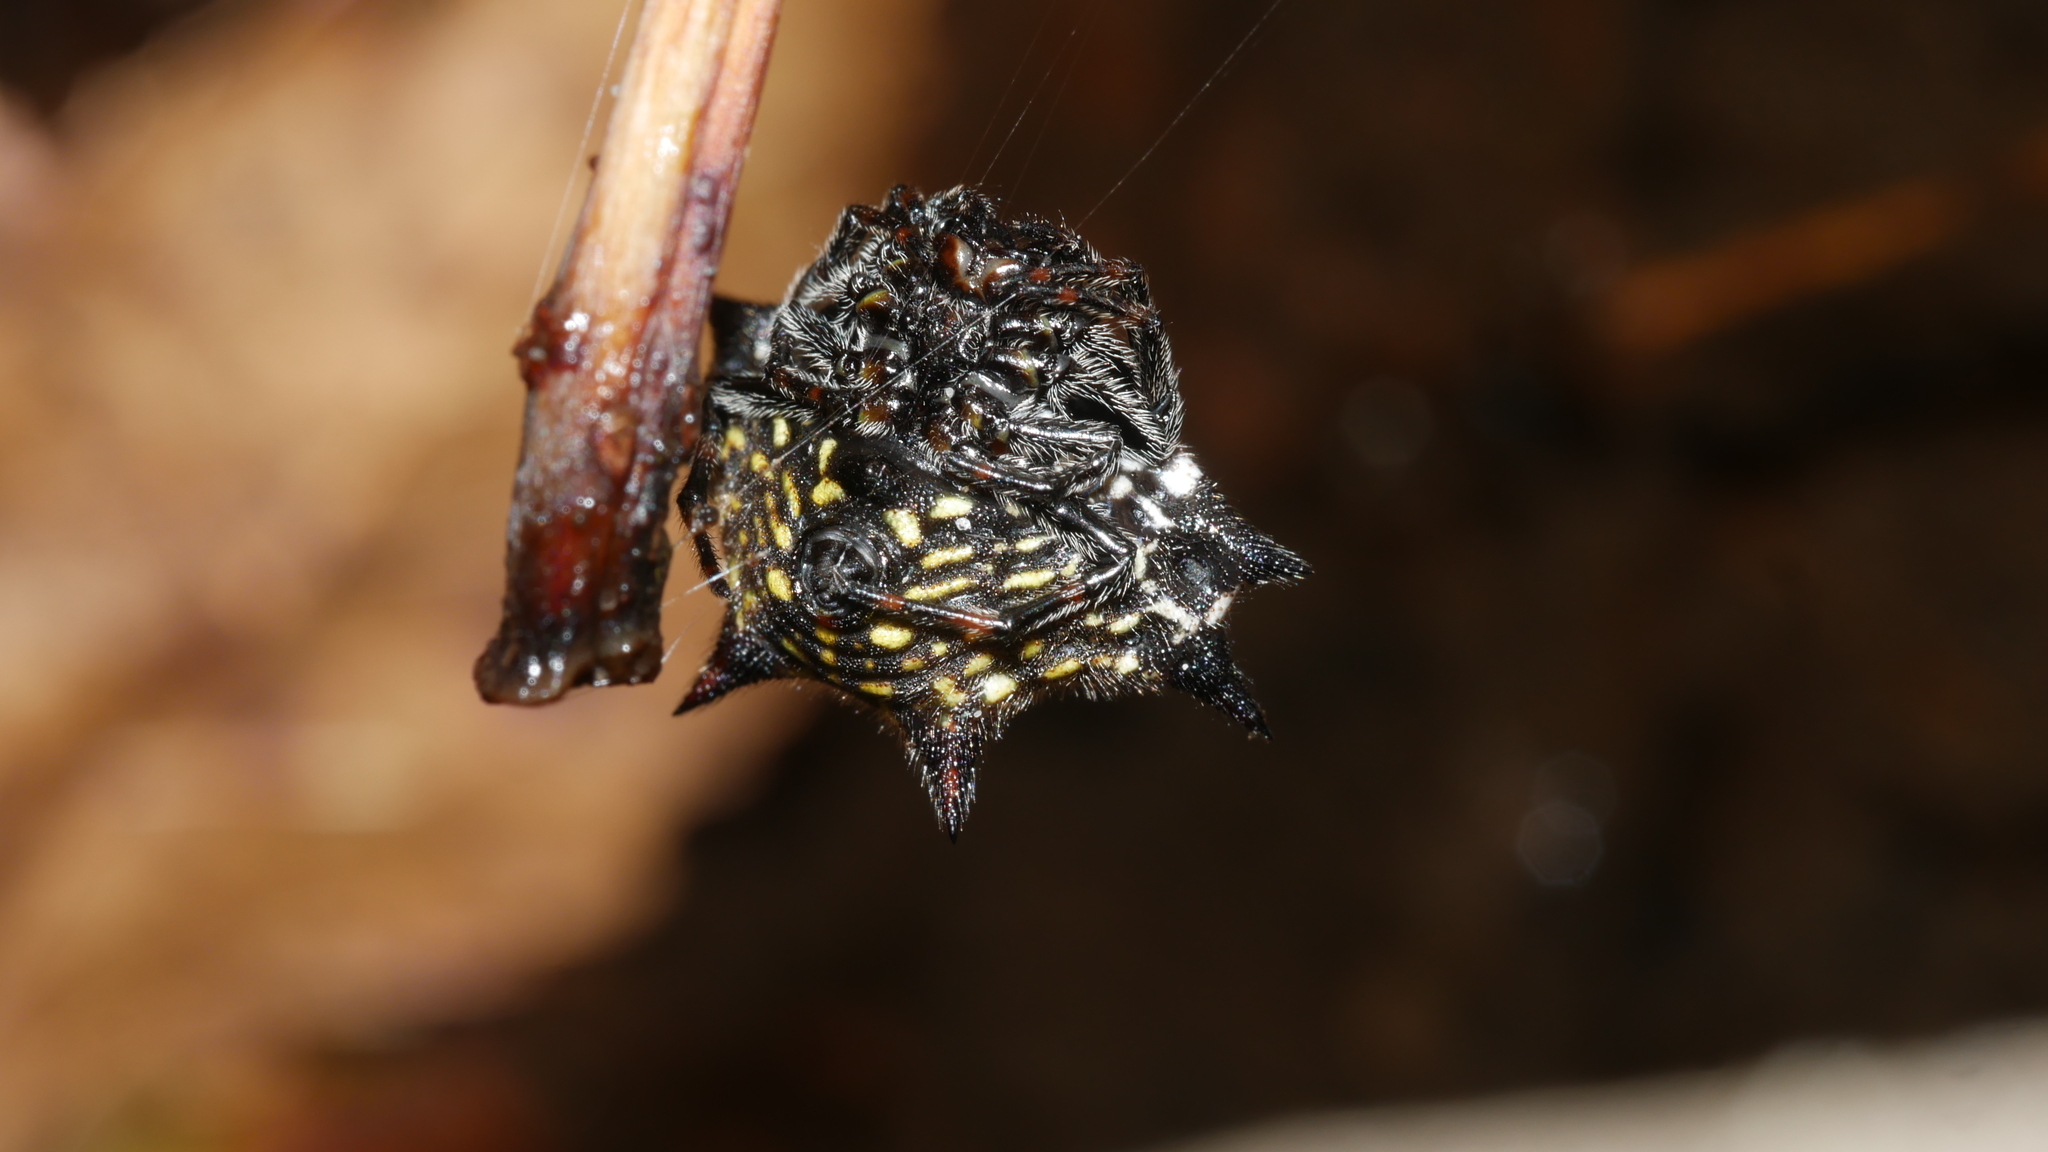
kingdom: Animalia
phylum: Arthropoda
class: Arachnida
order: Araneae
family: Araneidae
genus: Gasteracantha
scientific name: Gasteracantha cancriformis
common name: Orb weavers
